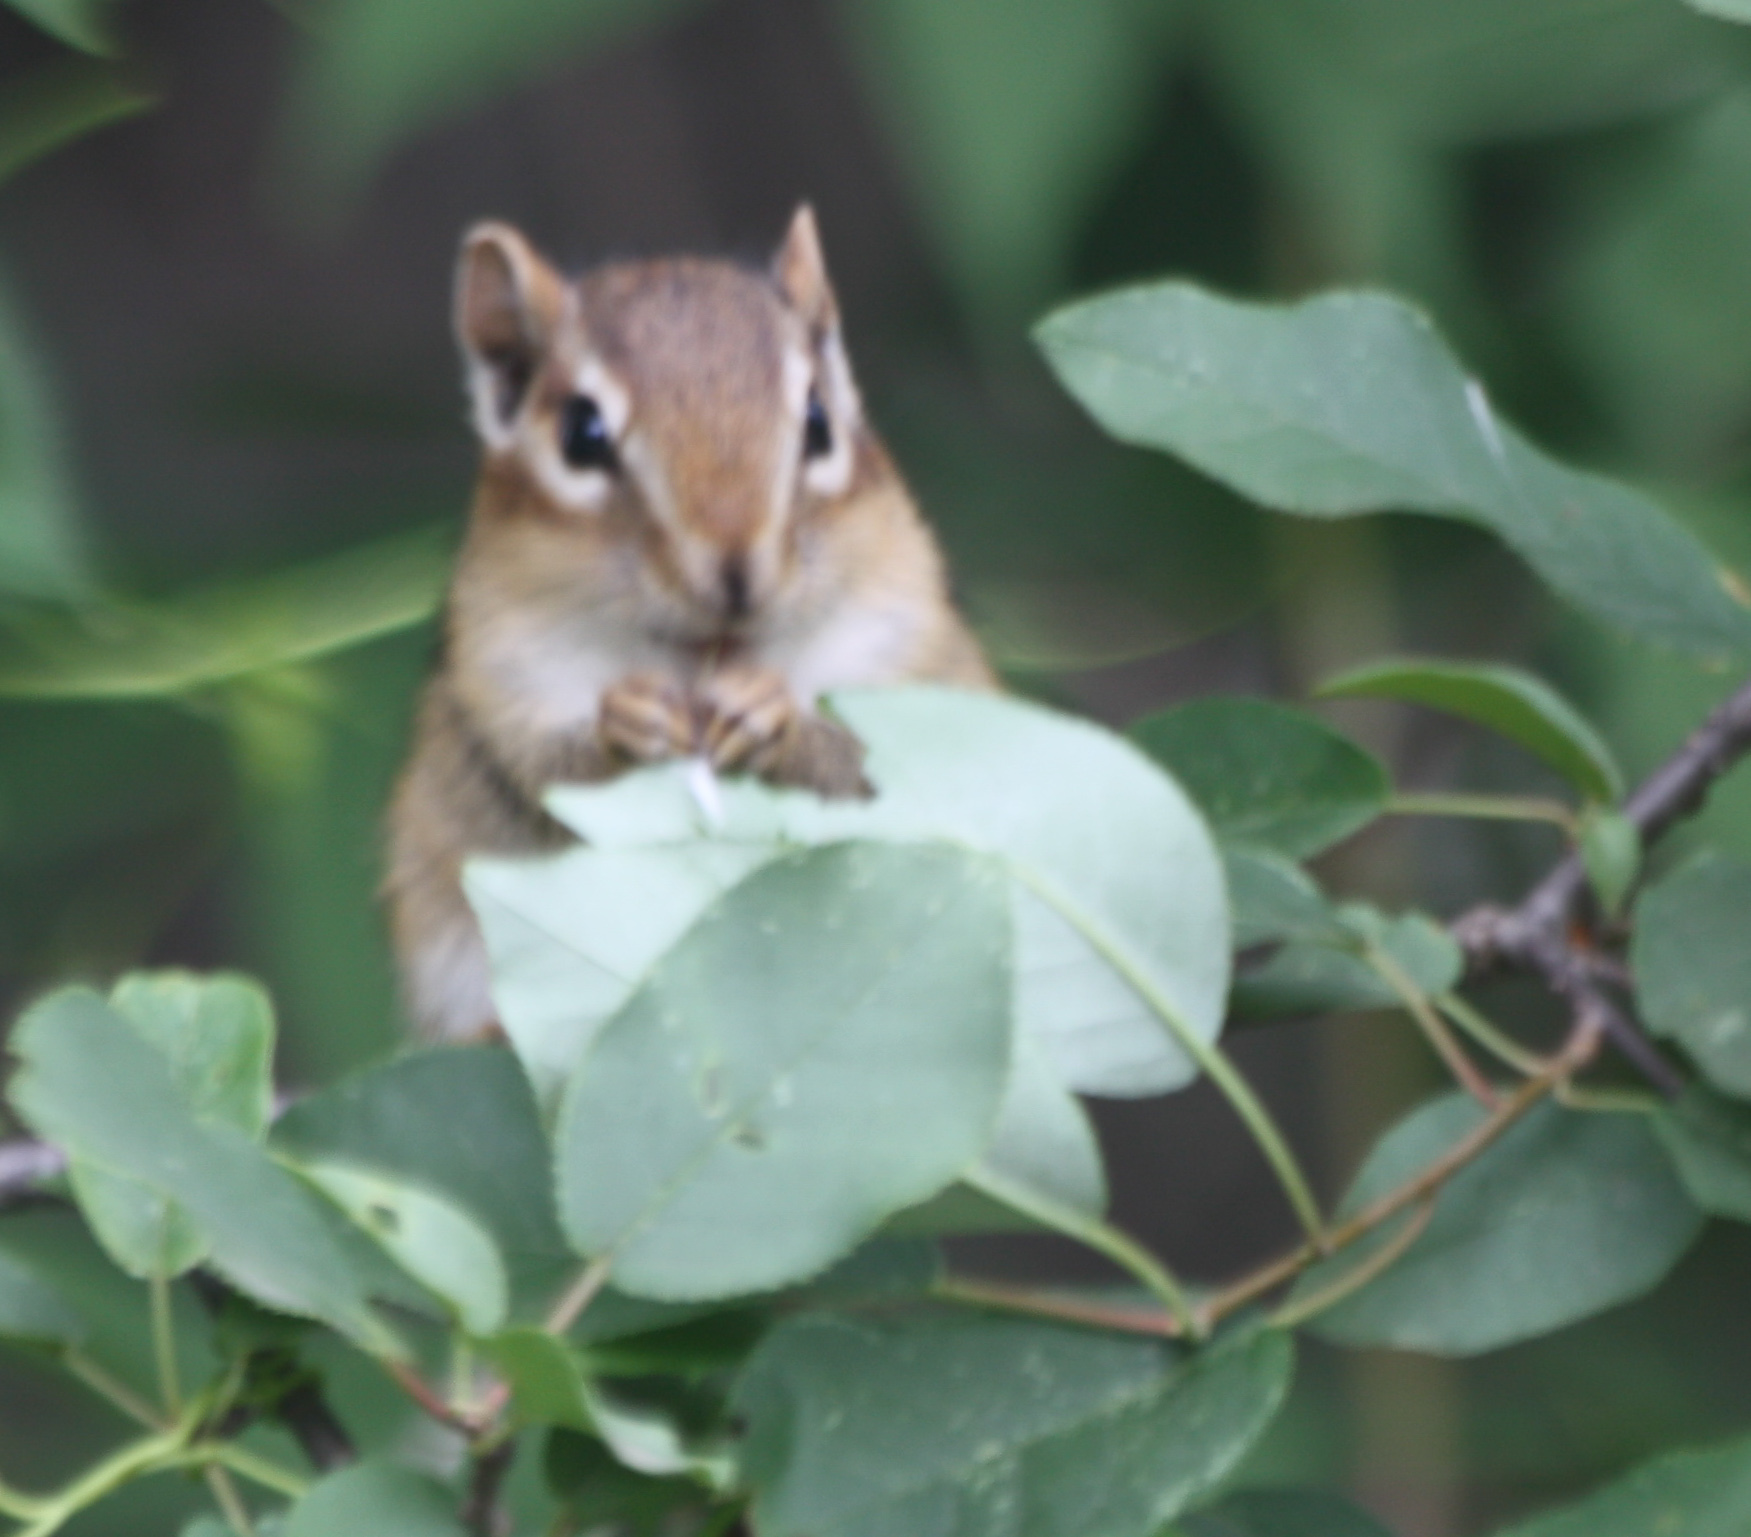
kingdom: Animalia
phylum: Chordata
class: Mammalia
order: Rodentia
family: Sciuridae
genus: Tamias
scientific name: Tamias striatus
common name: Eastern chipmunk
